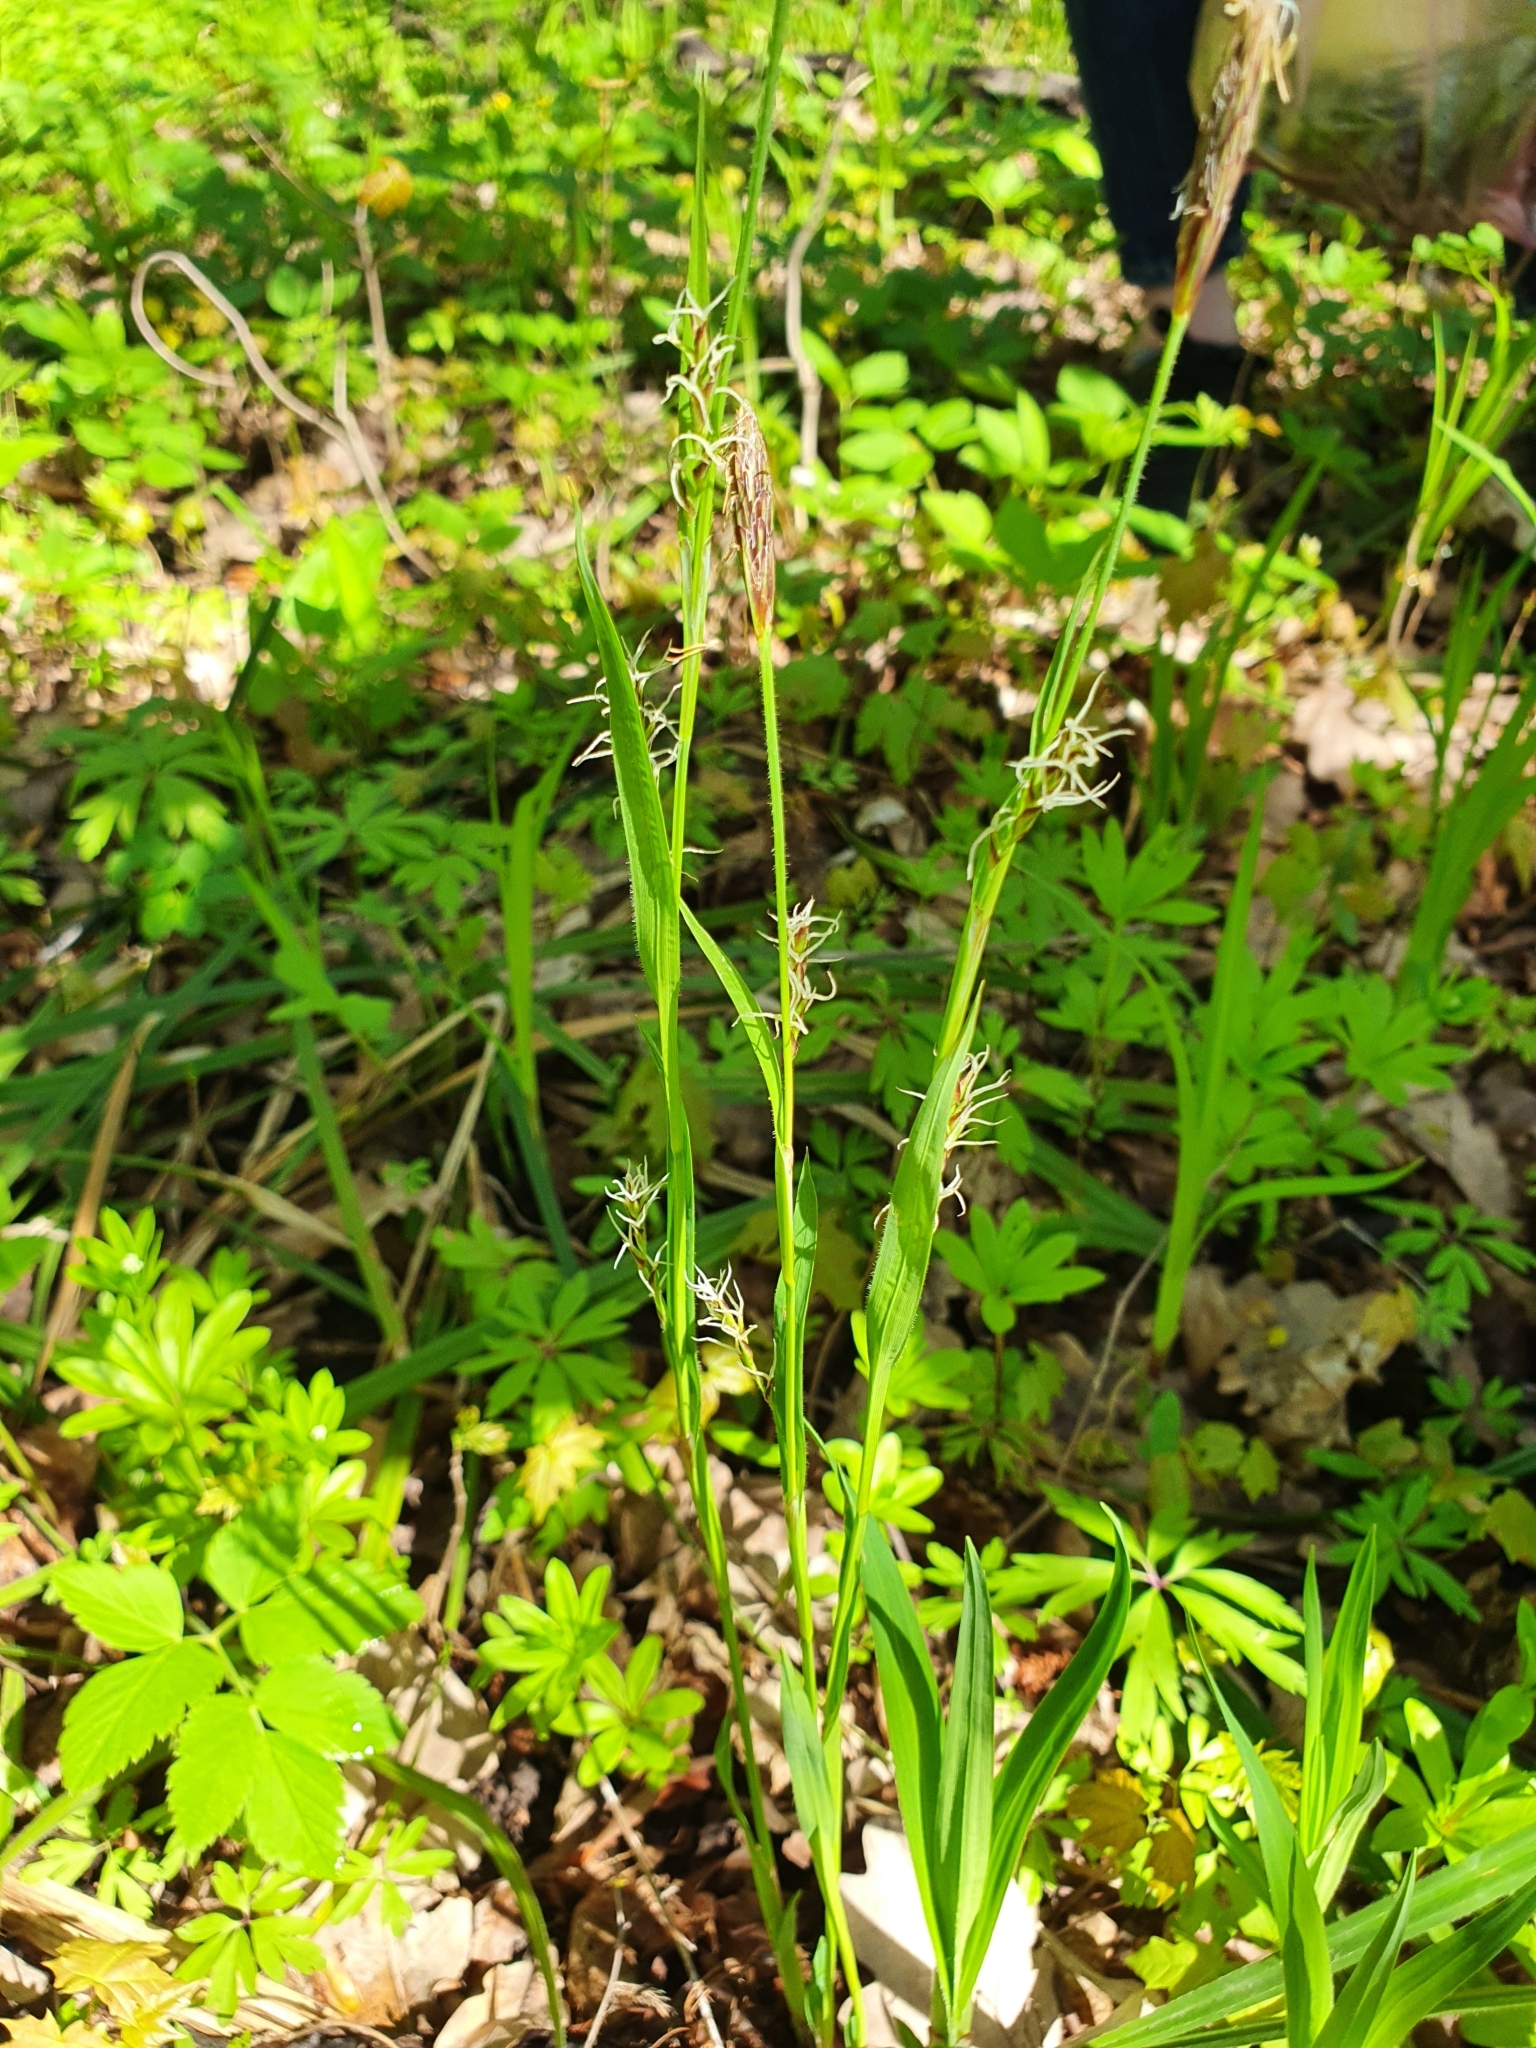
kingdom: Plantae
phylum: Tracheophyta
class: Liliopsida
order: Poales
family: Cyperaceae
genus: Carex
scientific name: Carex pilosa
